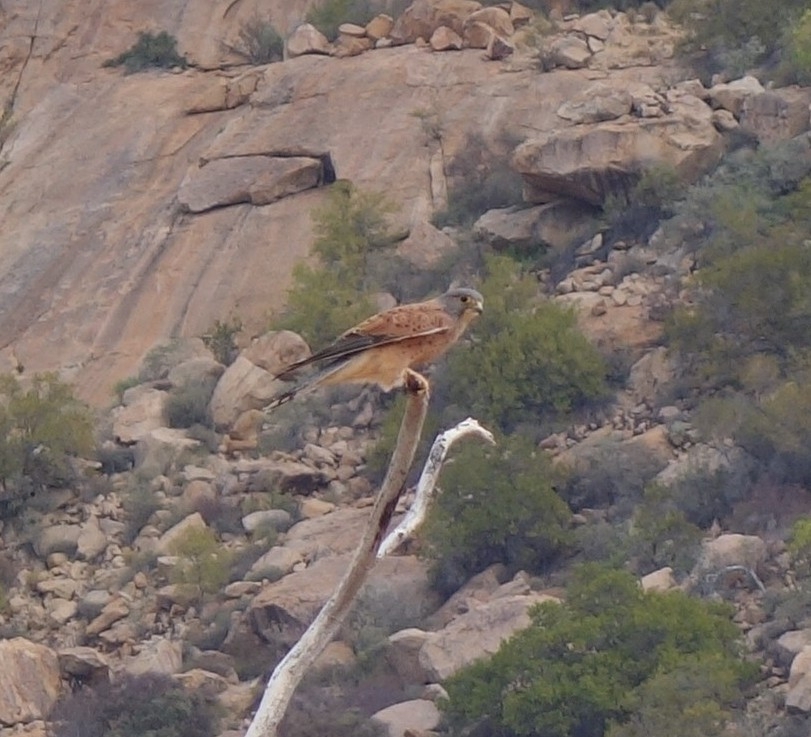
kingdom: Animalia
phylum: Chordata
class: Aves
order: Falconiformes
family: Falconidae
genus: Falco
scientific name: Falco rupicolus
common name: Rock kestrel
